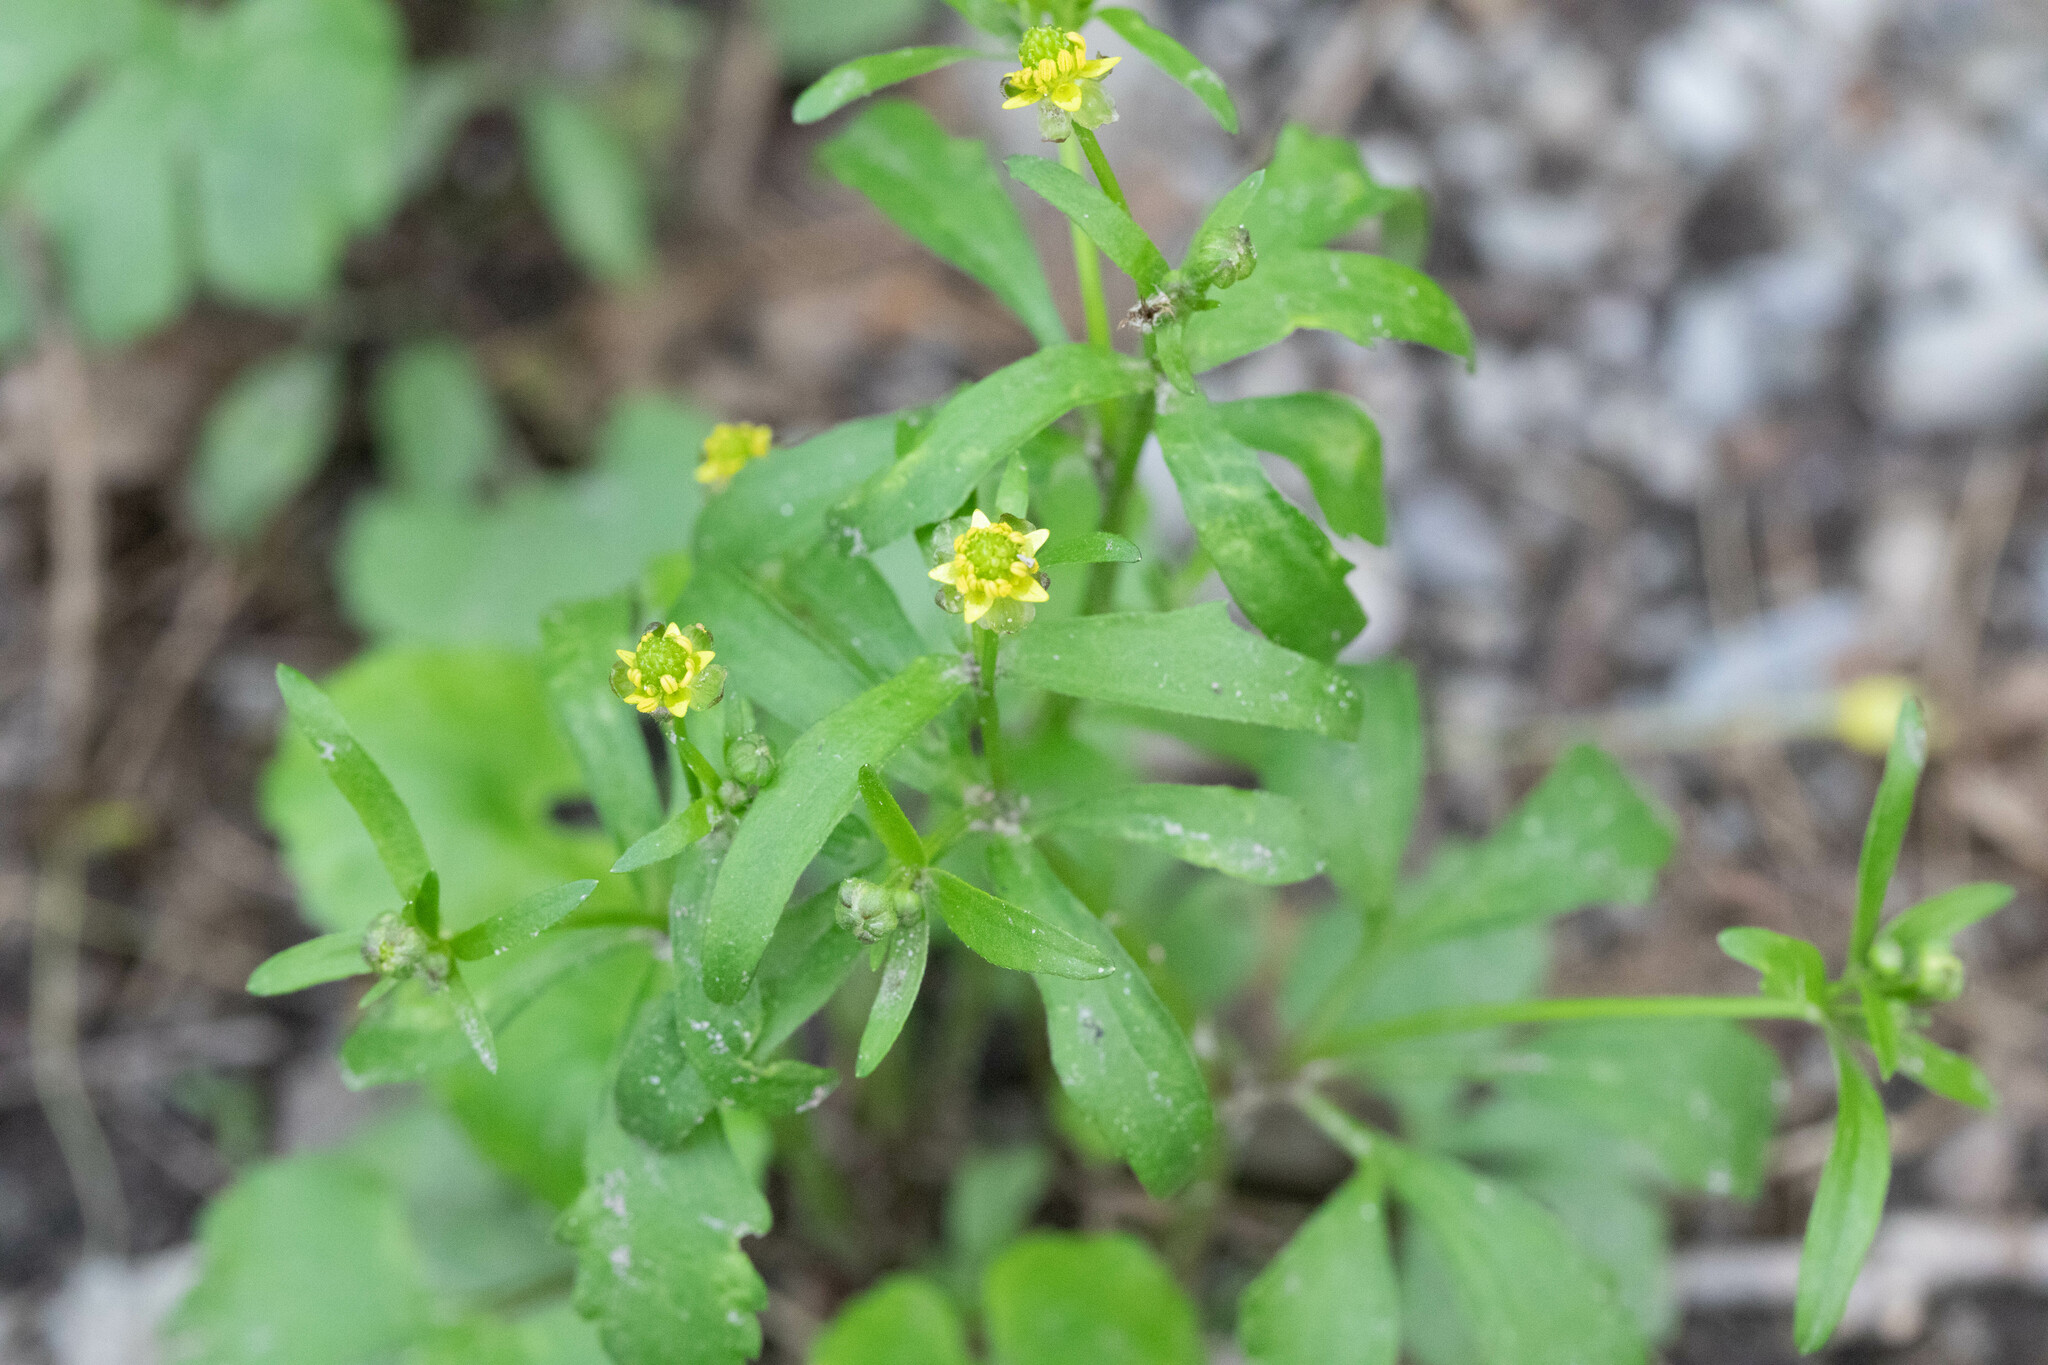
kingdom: Plantae
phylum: Tracheophyta
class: Magnoliopsida
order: Ranunculales
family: Ranunculaceae
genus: Ranunculus
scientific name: Ranunculus abortivus
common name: Early wood buttercup
